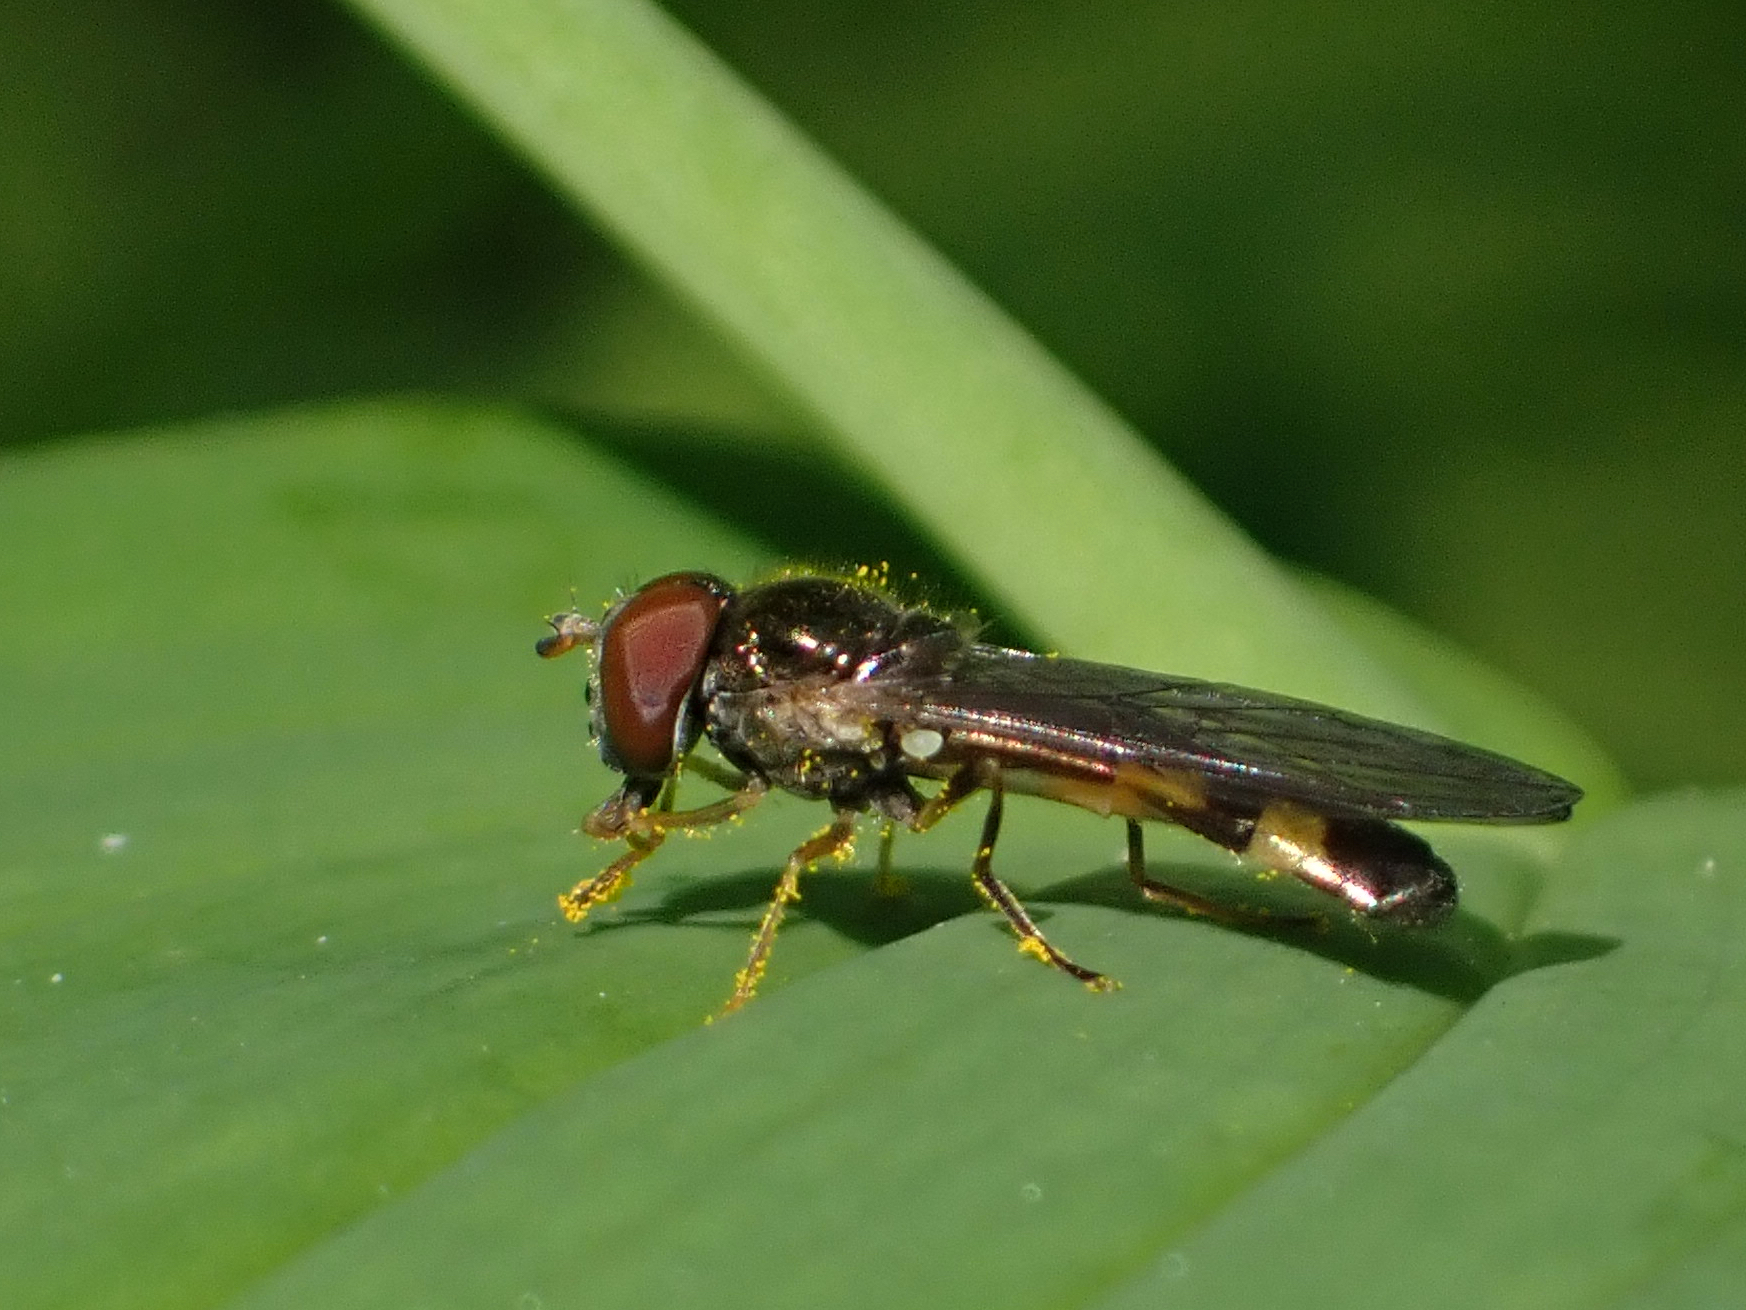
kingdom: Animalia
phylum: Arthropoda
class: Insecta
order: Diptera
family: Syrphidae
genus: Melanostoma
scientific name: Melanostoma mellina
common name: Hover fly
